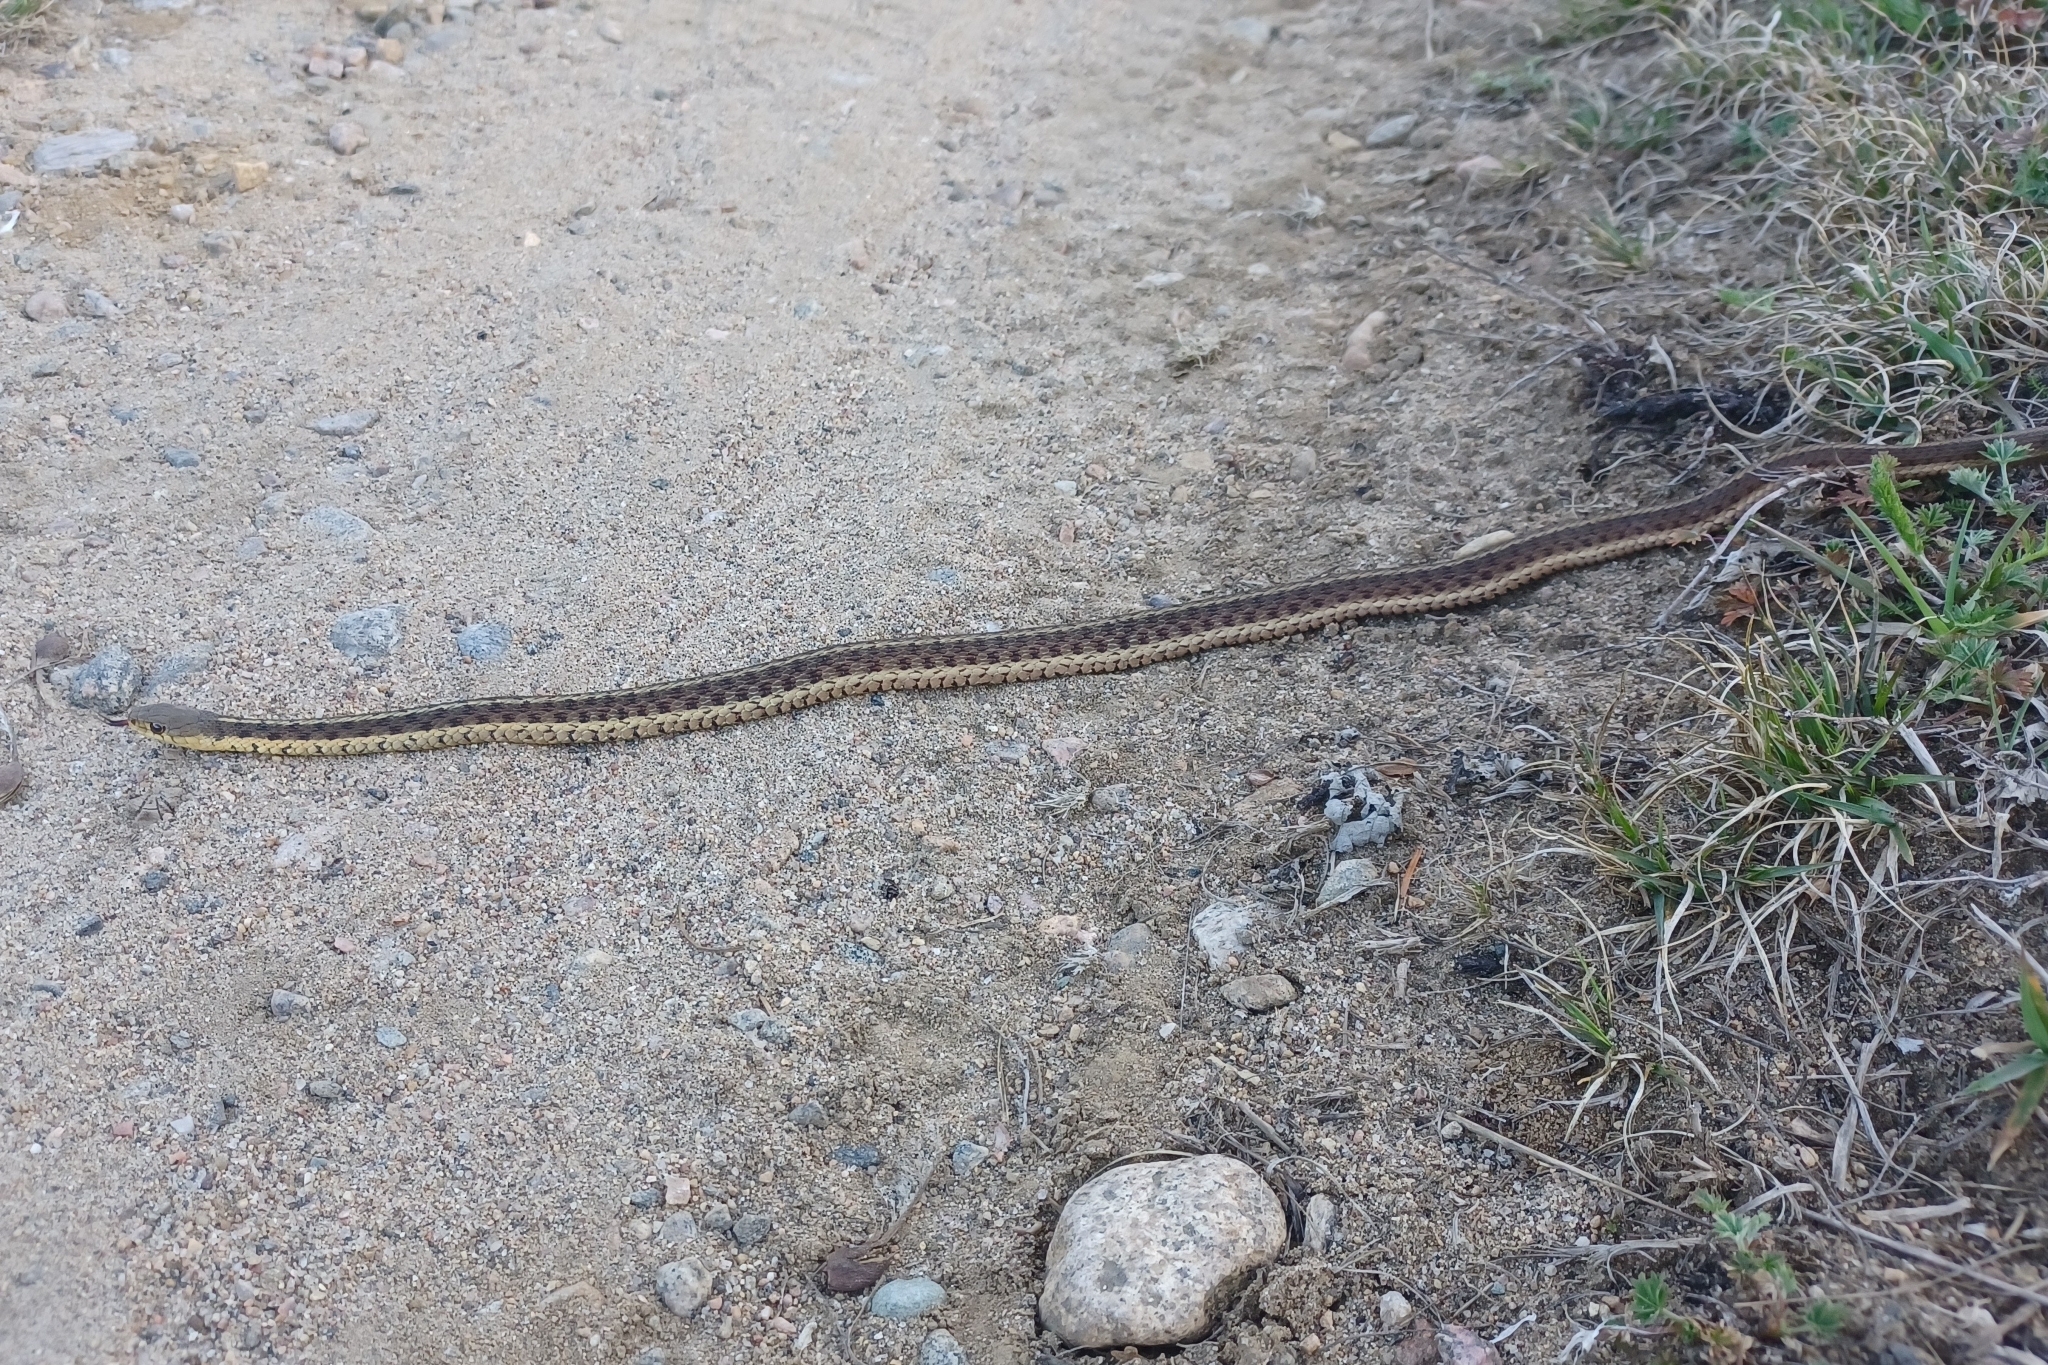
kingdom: Animalia
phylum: Chordata
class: Squamata
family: Colubridae
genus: Thamnophis
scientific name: Thamnophis sirtalis
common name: Common garter snake
